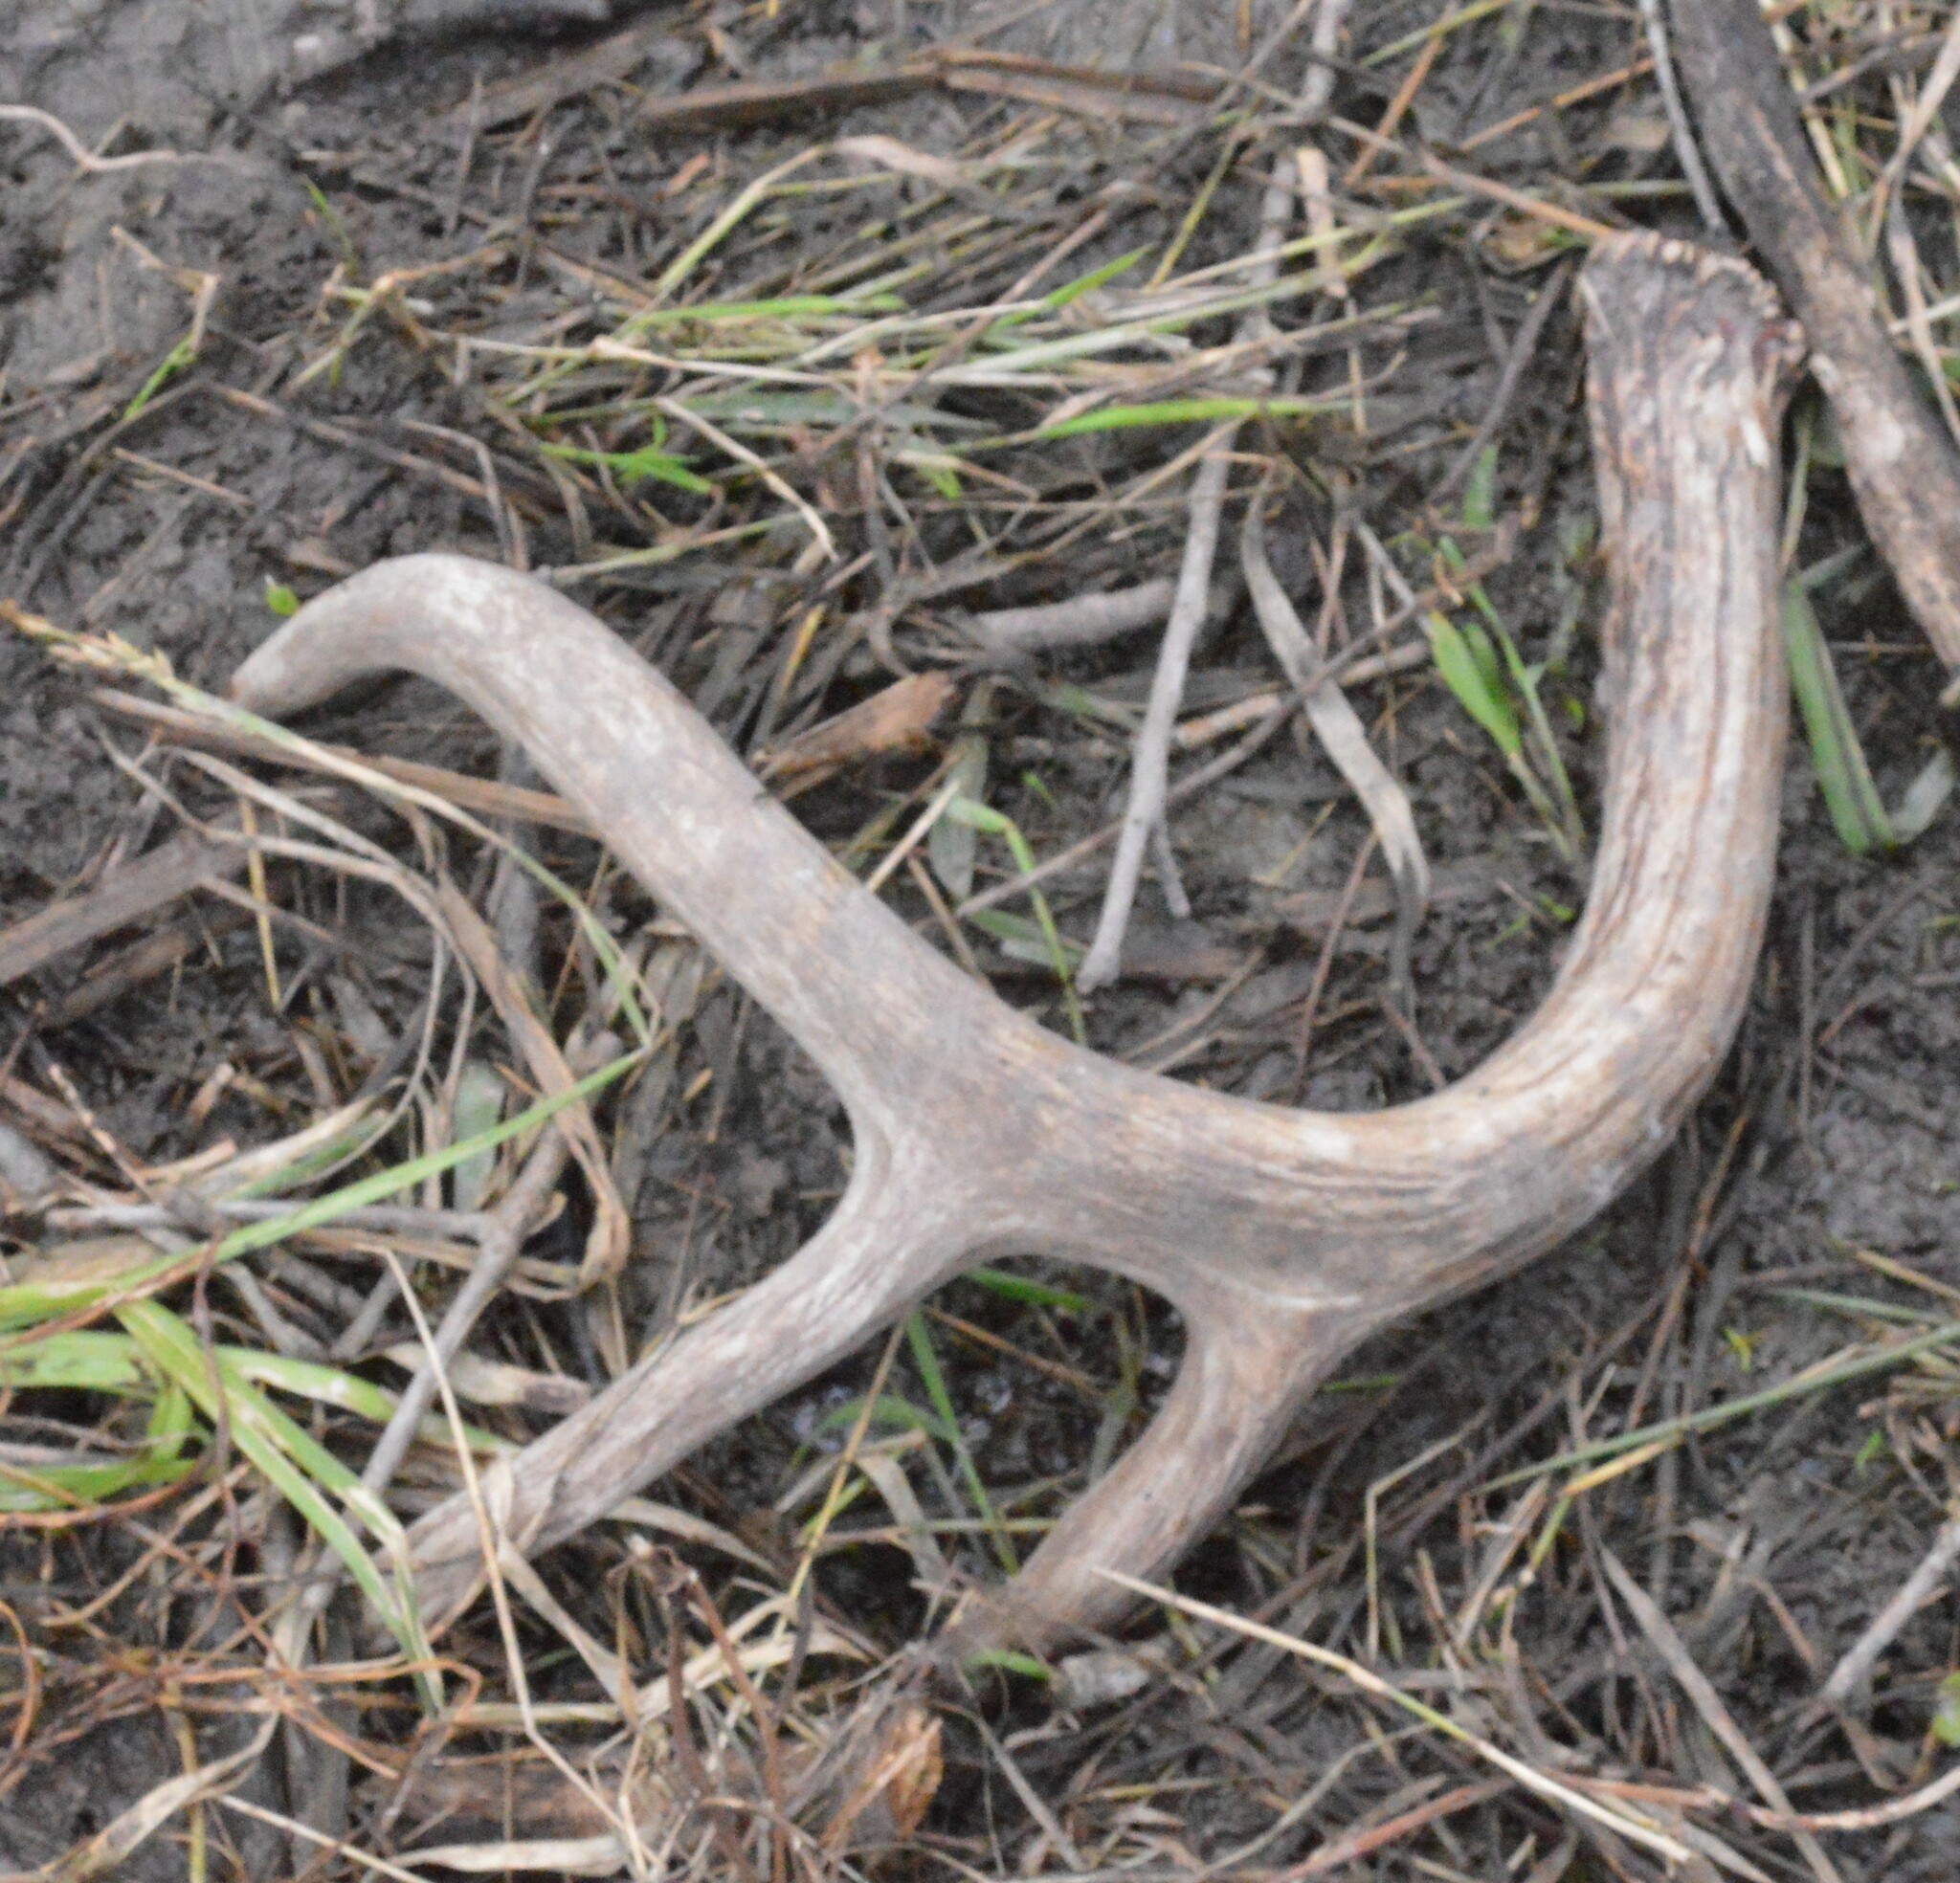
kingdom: Animalia
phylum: Chordata
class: Mammalia
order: Artiodactyla
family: Cervidae
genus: Odocoileus
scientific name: Odocoileus virginianus
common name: White-tailed deer
